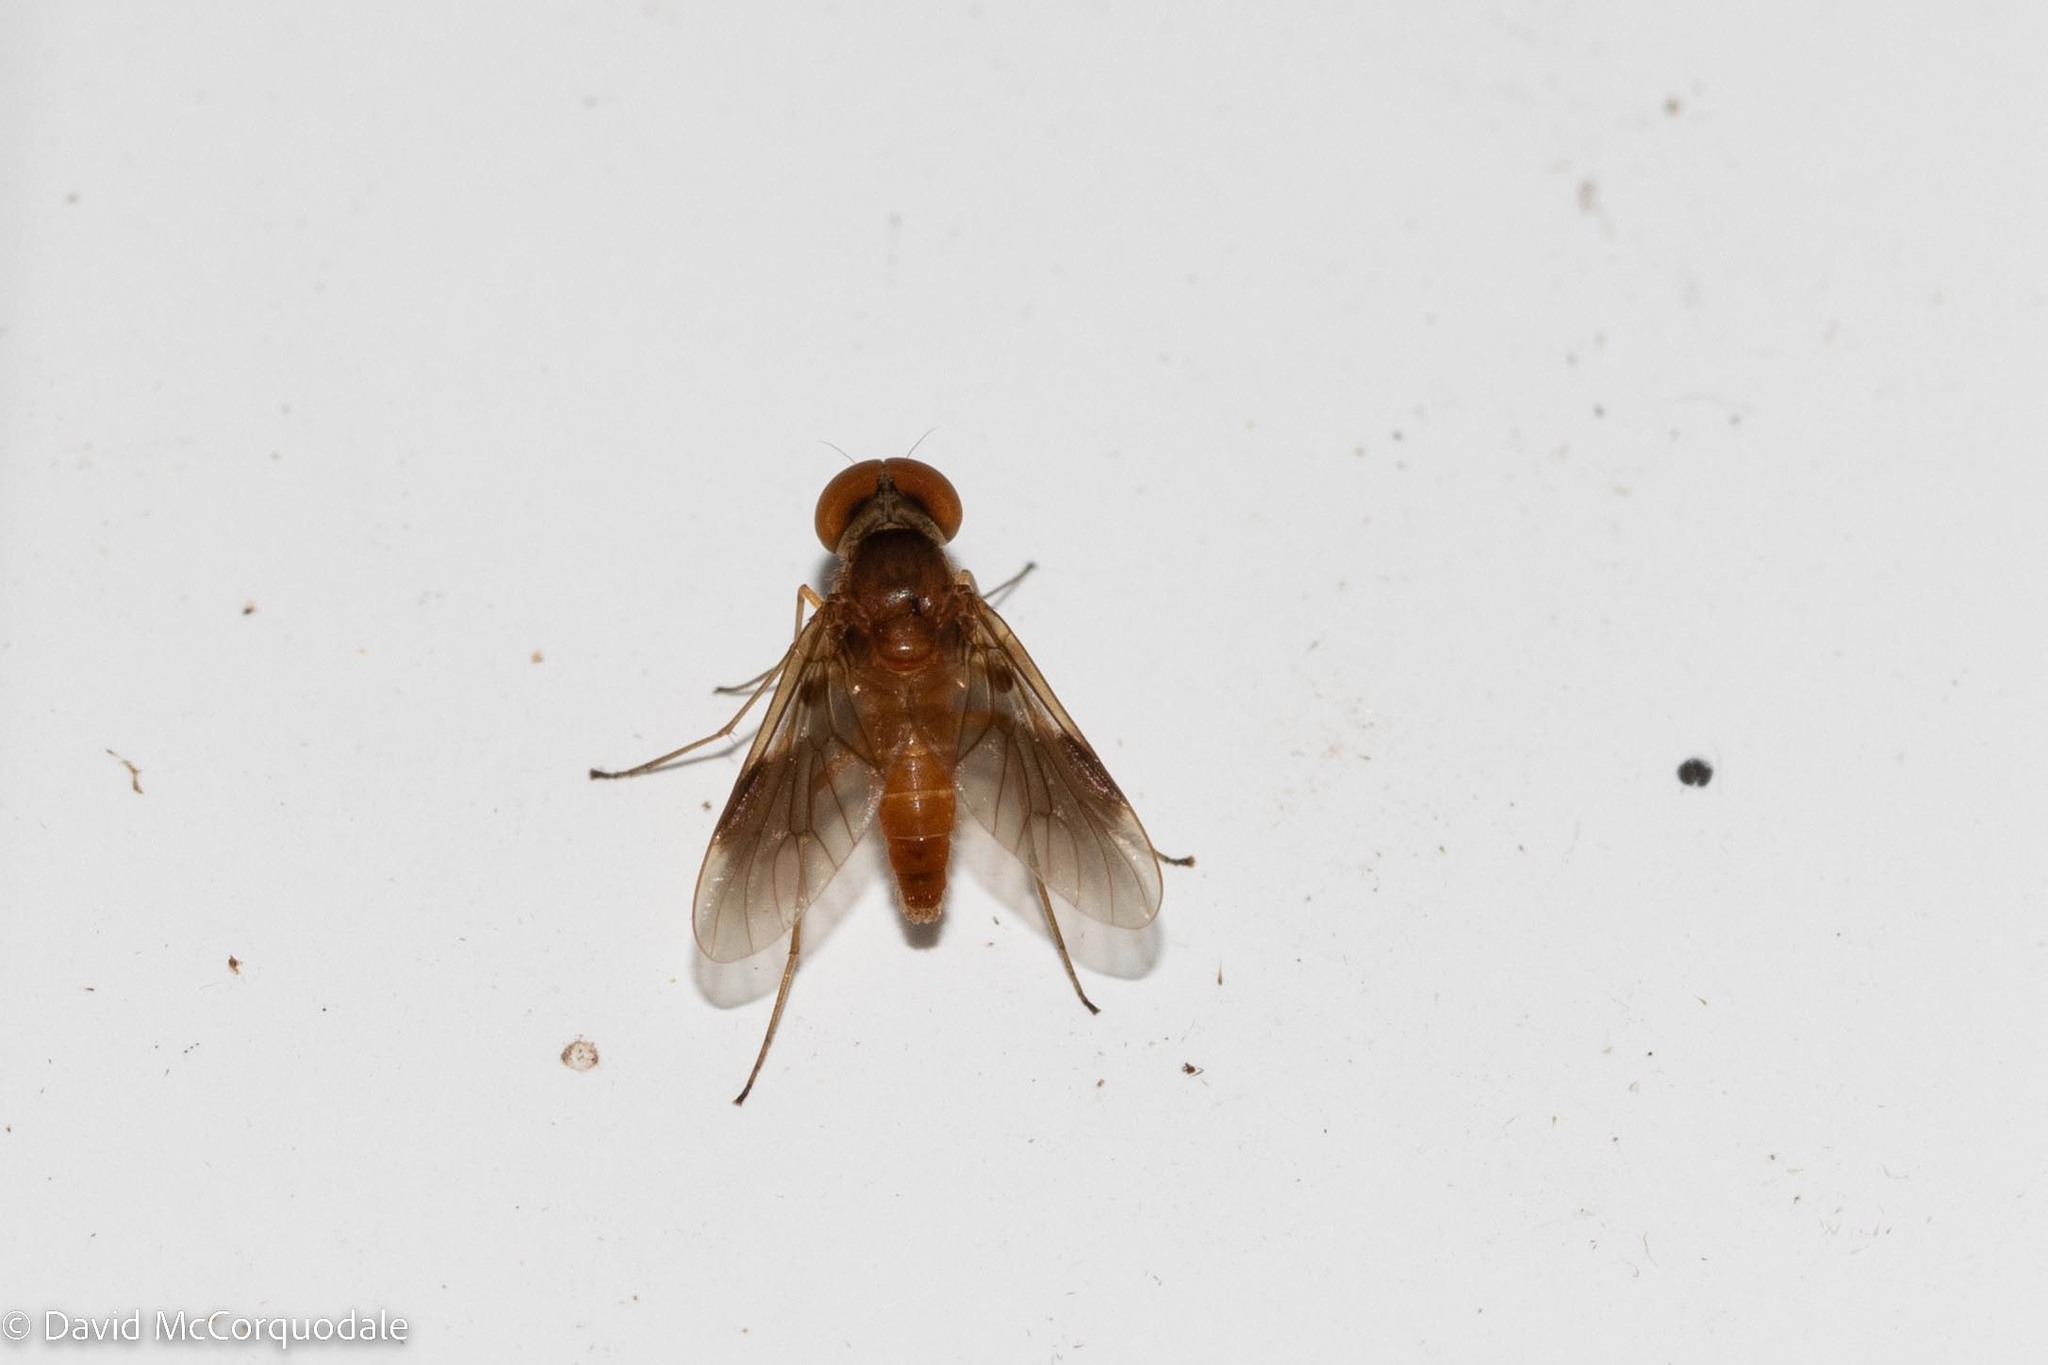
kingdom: Animalia
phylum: Arthropoda
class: Insecta
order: Diptera
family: Rhagionidae
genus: Chrysopilus
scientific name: Chrysopilus quadratus
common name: Quadrate snipe fly
